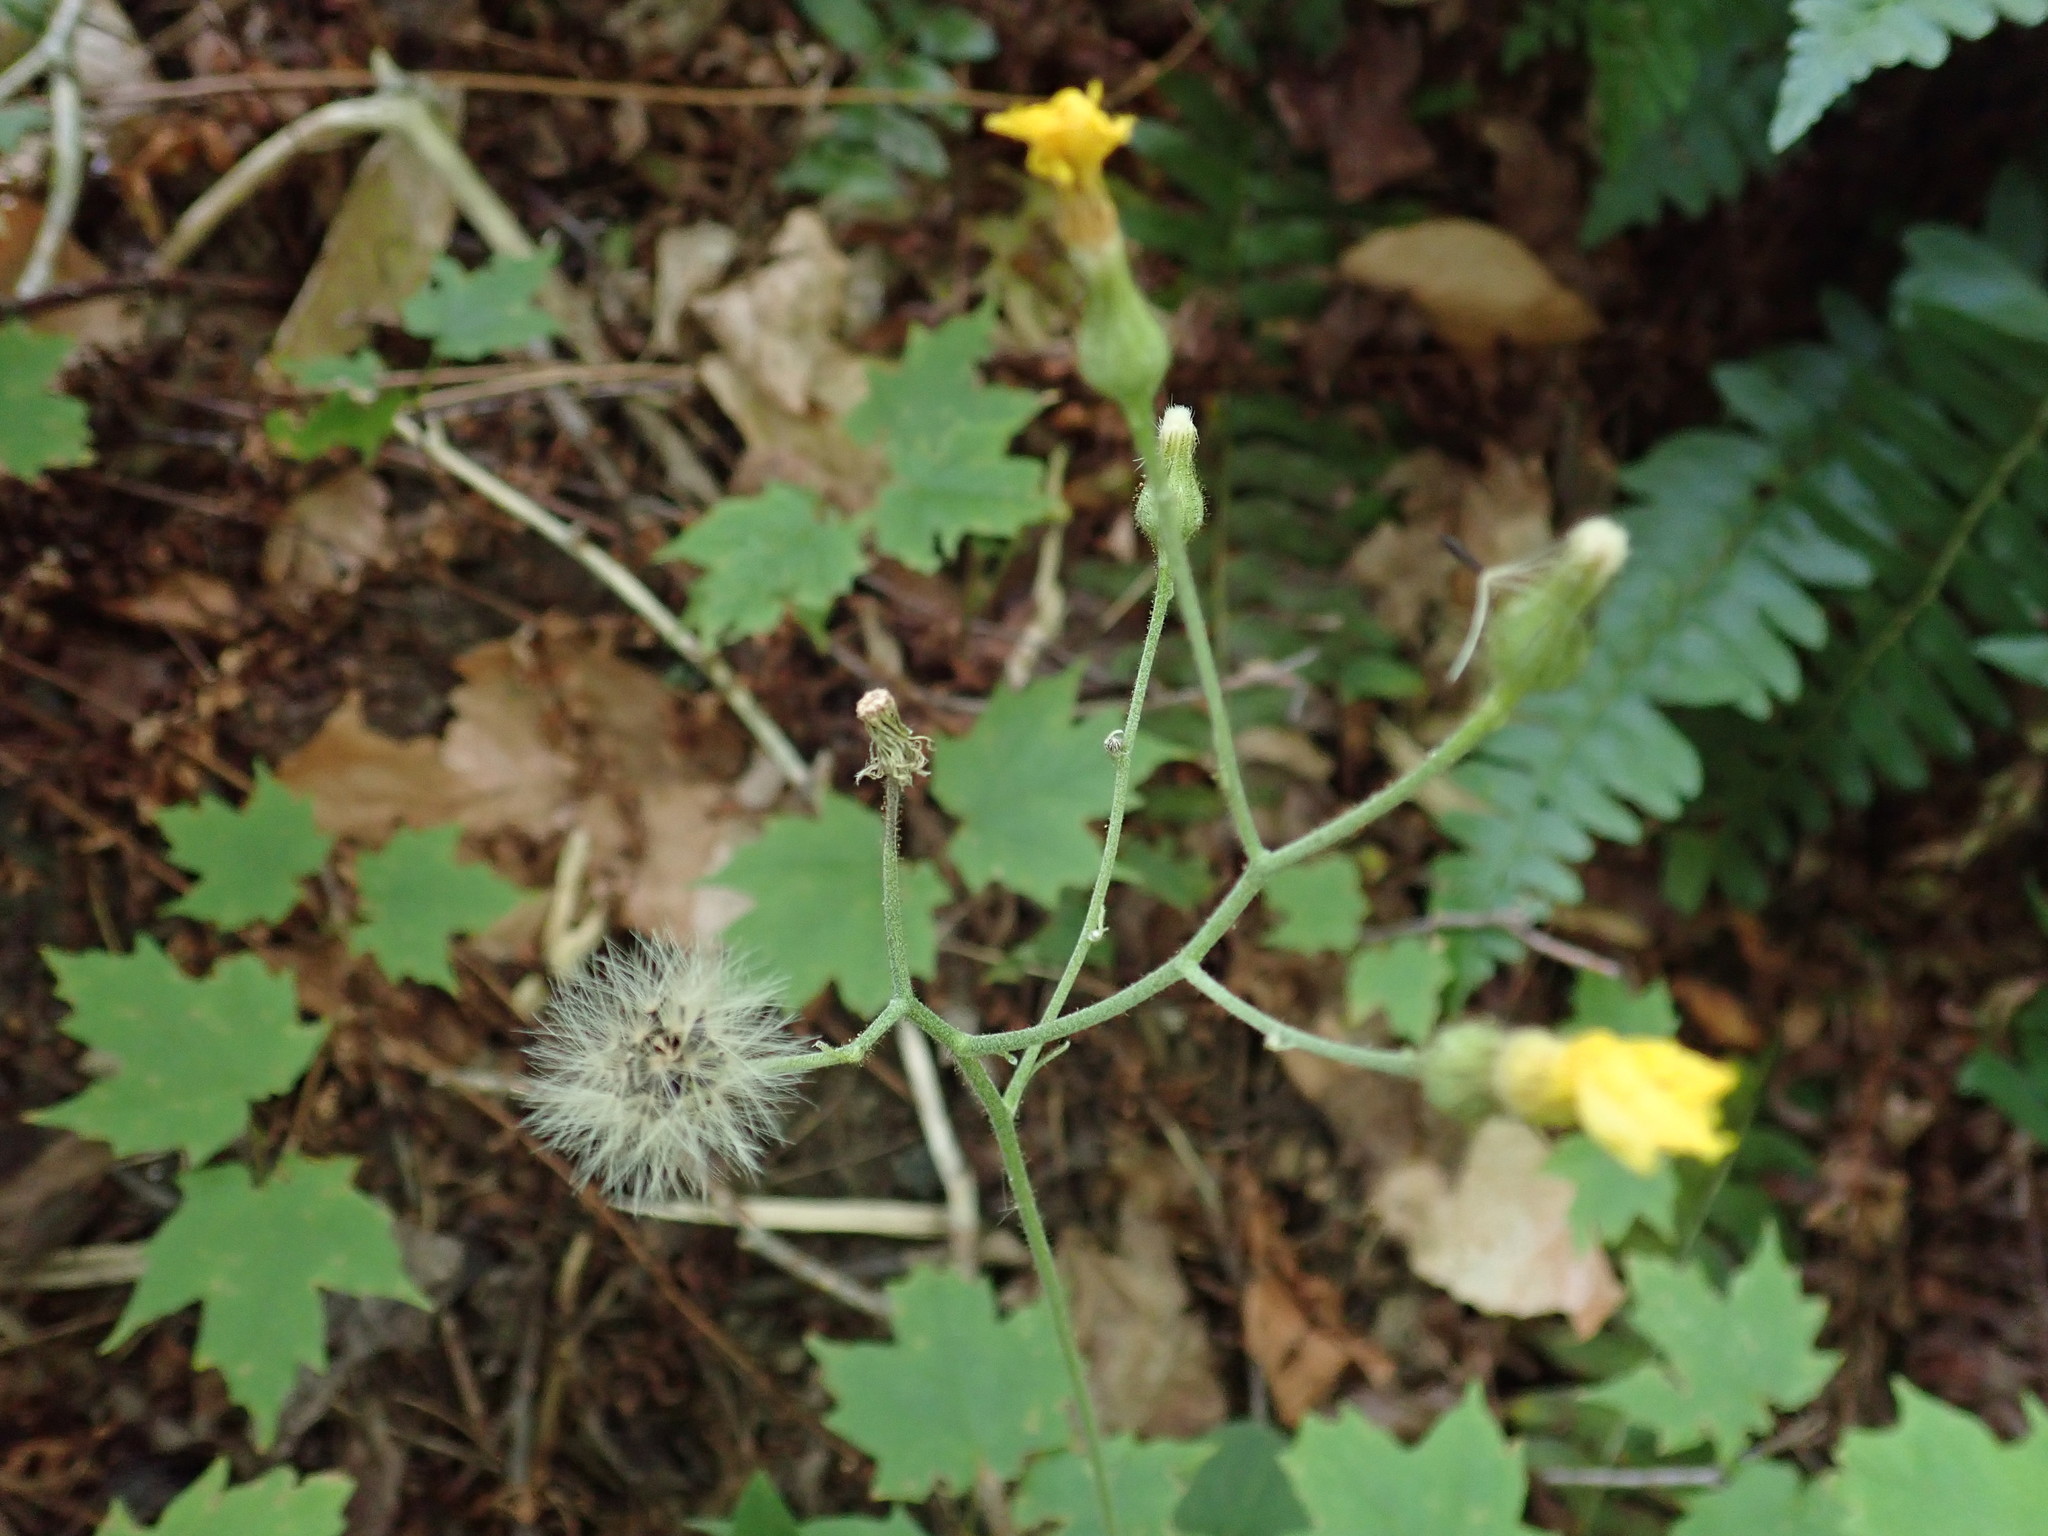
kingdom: Plantae
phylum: Tracheophyta
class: Magnoliopsida
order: Asterales
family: Asteraceae
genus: Hieracium
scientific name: Hieracium murorum
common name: Wall hawkweed
